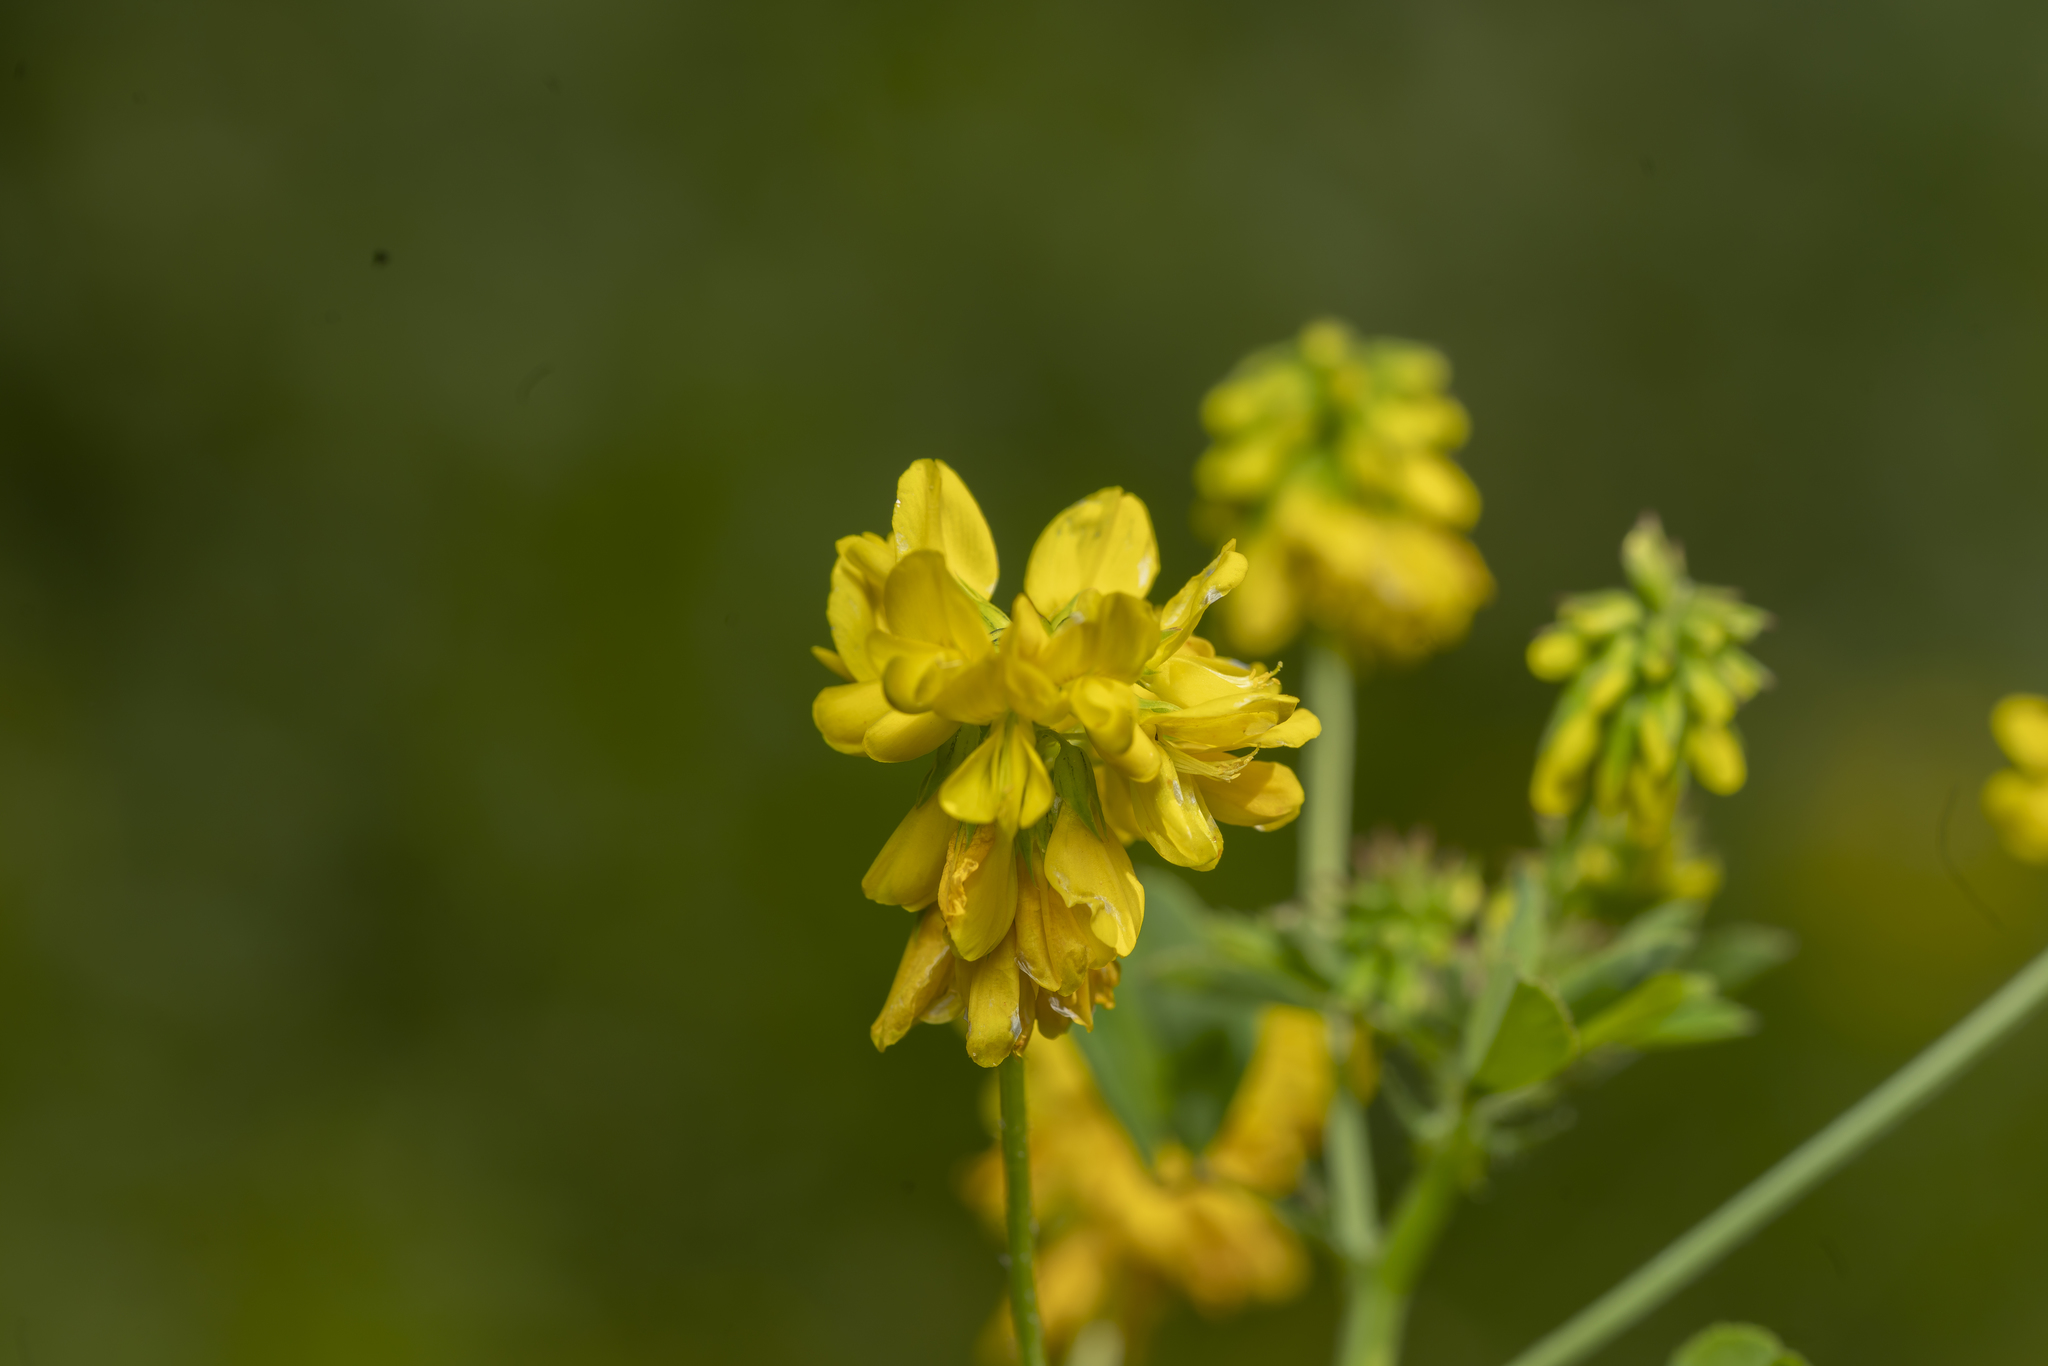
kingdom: Plantae
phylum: Tracheophyta
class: Magnoliopsida
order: Fabales
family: Fabaceae
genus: Trigonella
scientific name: Trigonella balansae
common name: Sickle-fruited fenugreek
